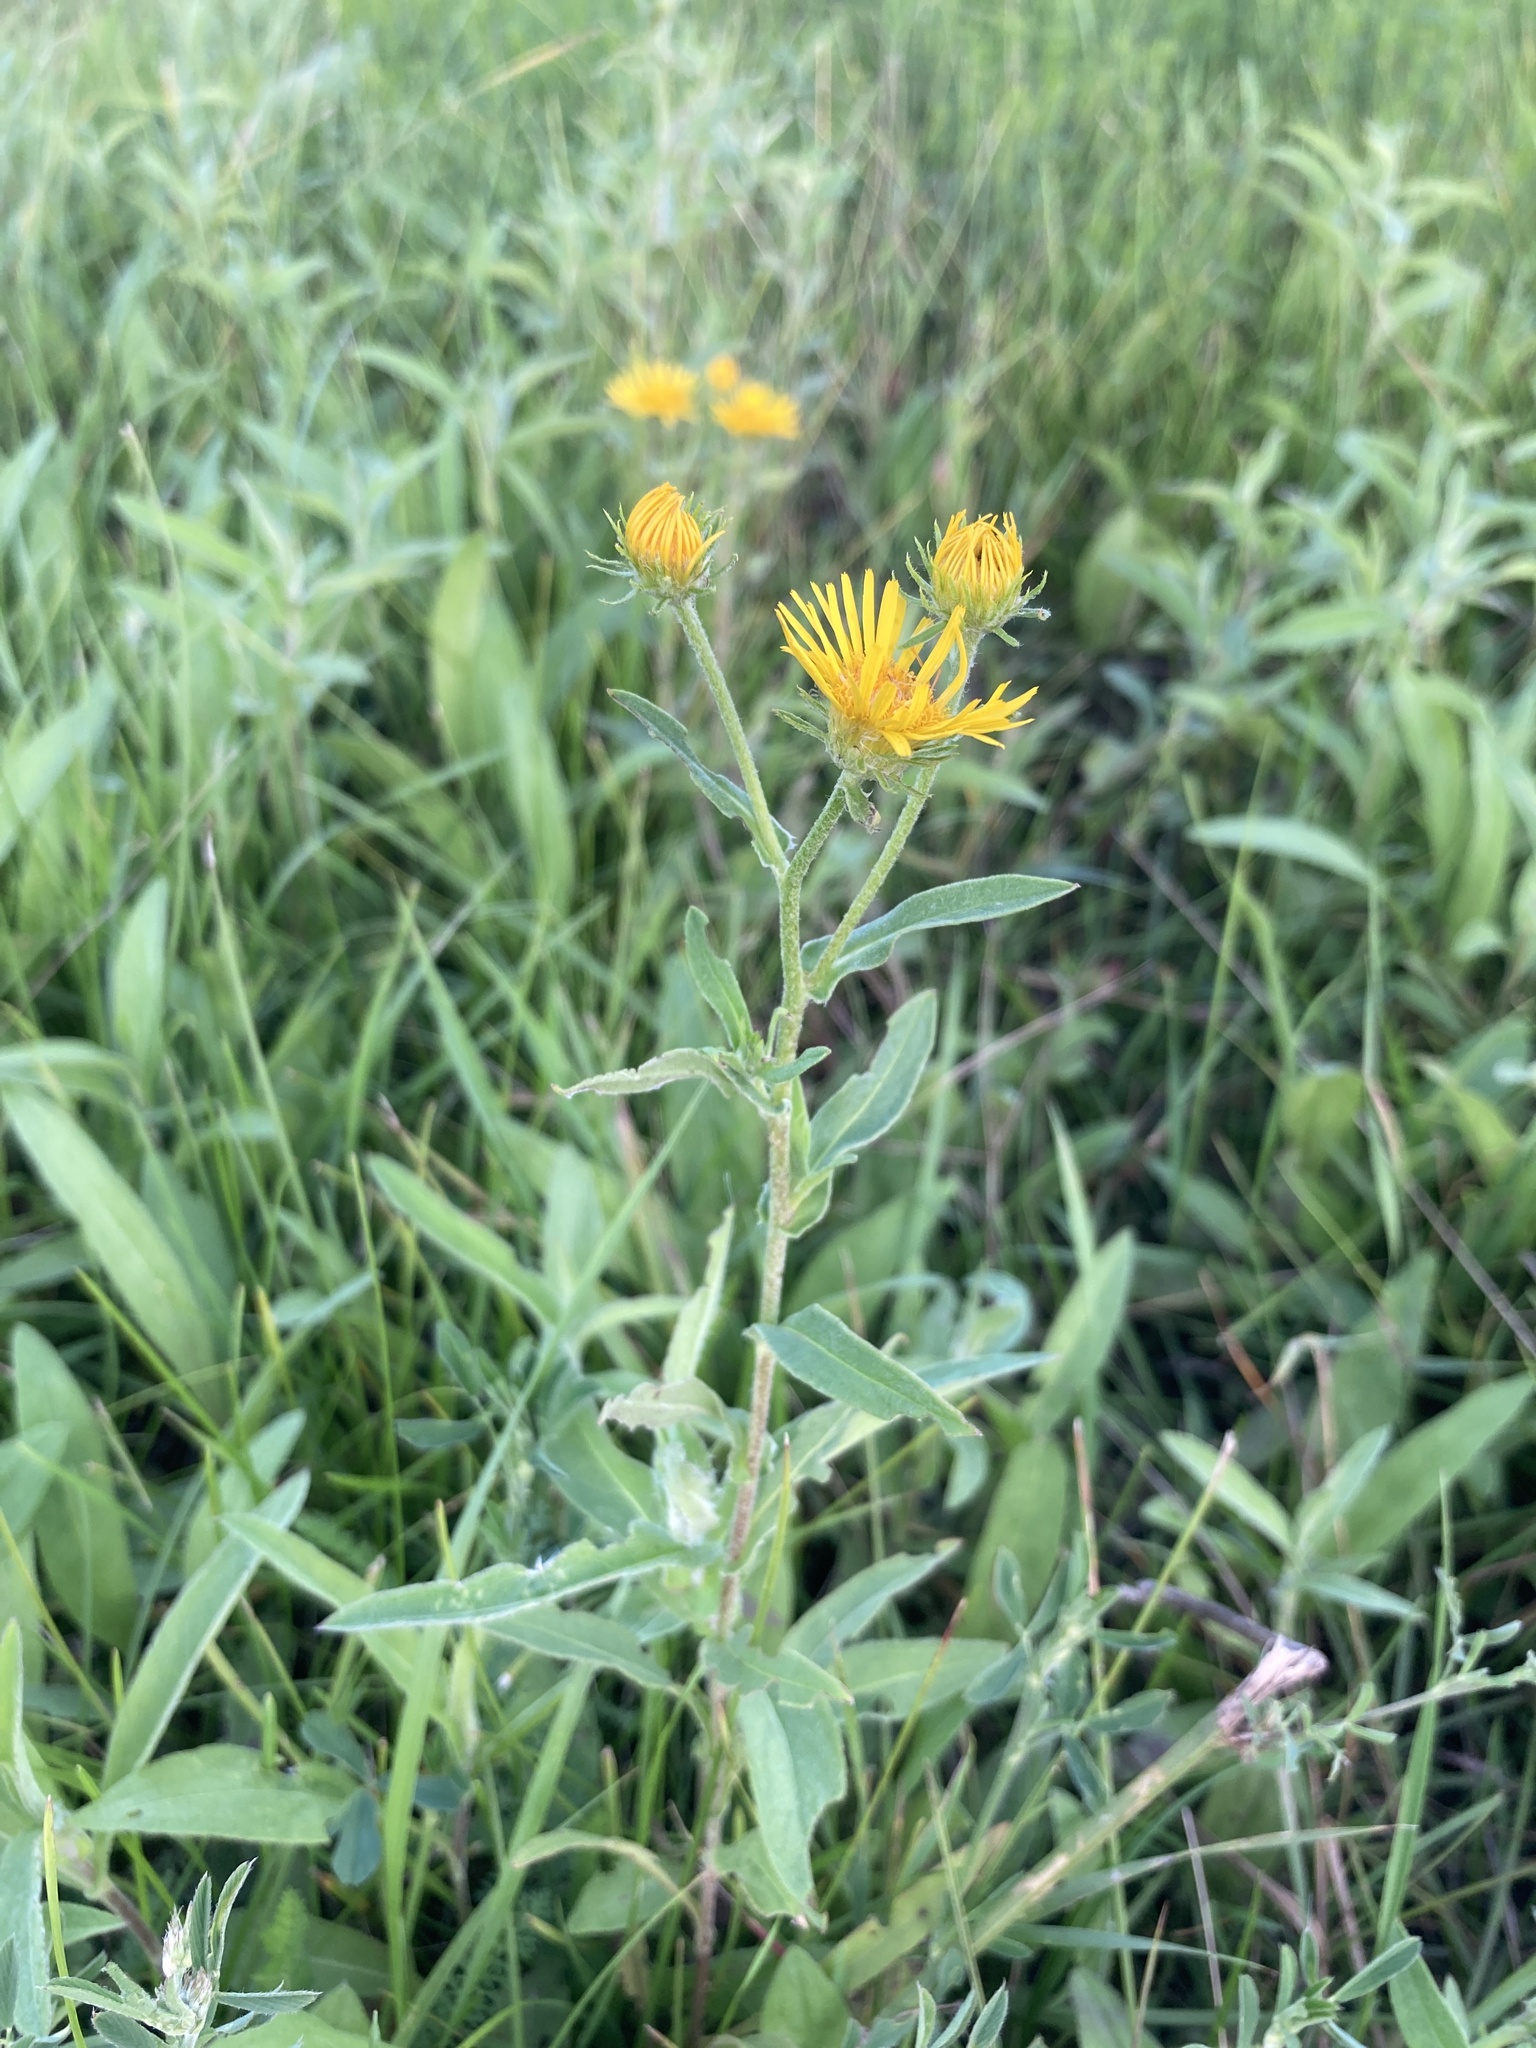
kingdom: Plantae
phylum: Tracheophyta
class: Magnoliopsida
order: Asterales
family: Asteraceae
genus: Pentanema
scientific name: Pentanema britannicum
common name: British elecampane
